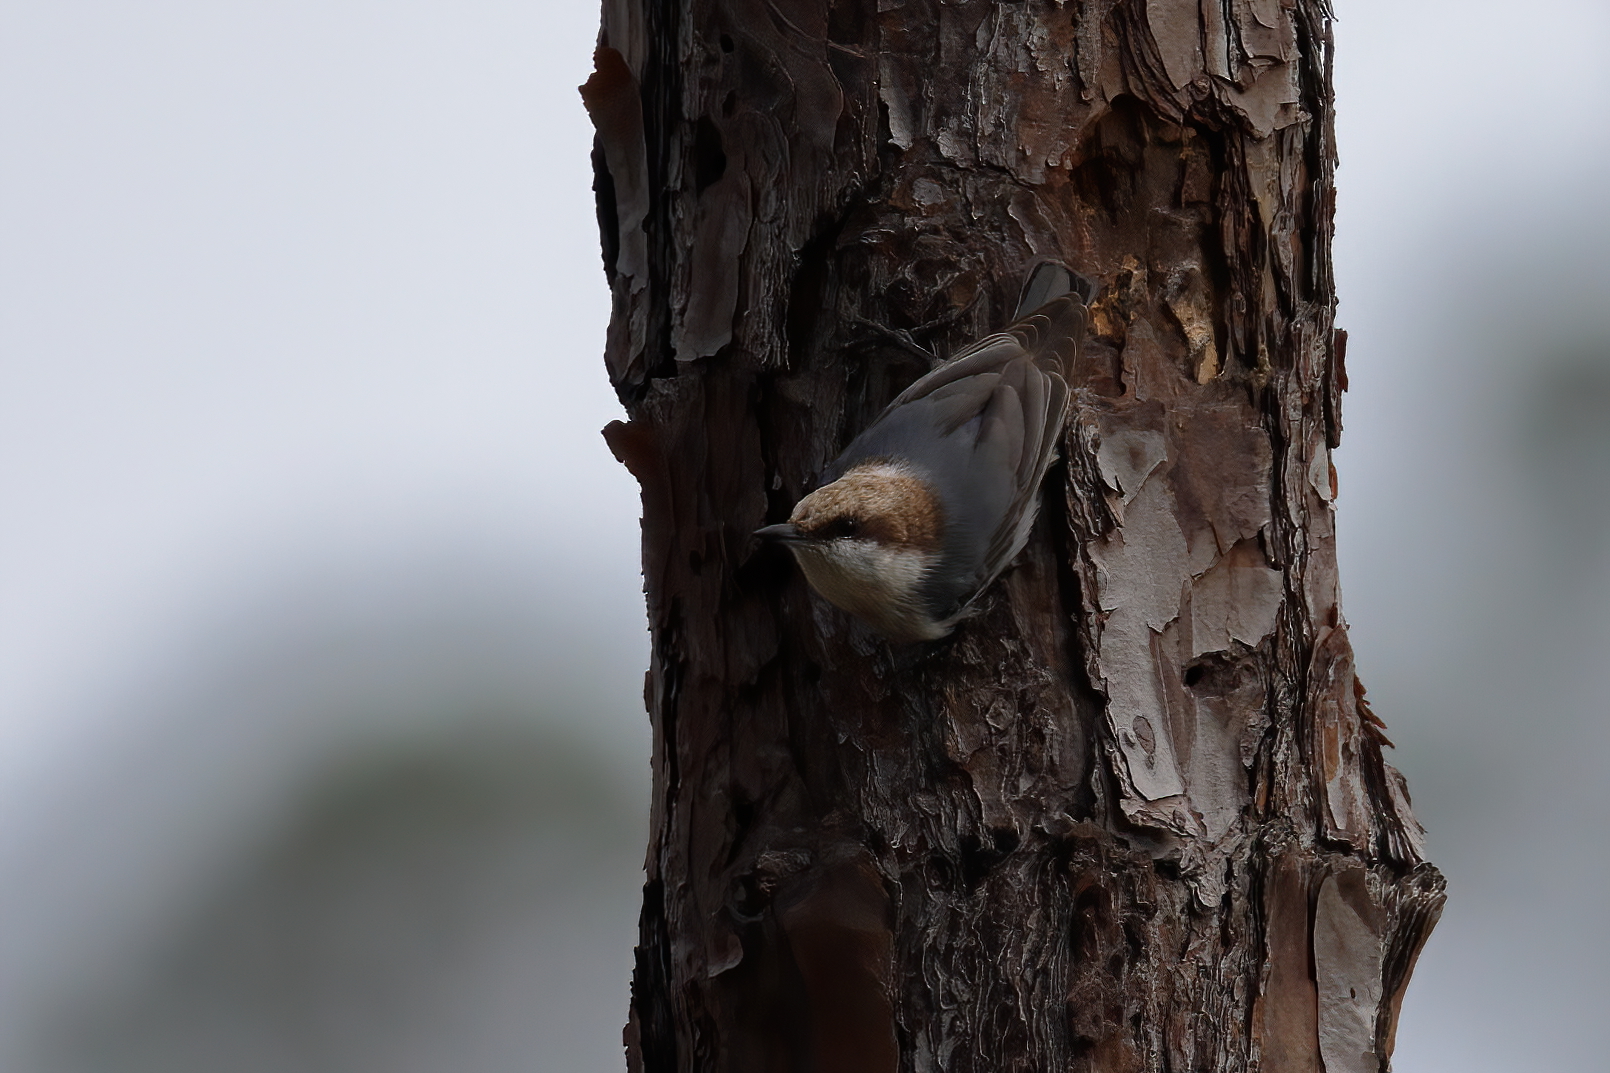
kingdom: Animalia
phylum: Chordata
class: Aves
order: Passeriformes
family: Sittidae
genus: Sitta
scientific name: Sitta pusilla
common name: Brown-headed nuthatch
